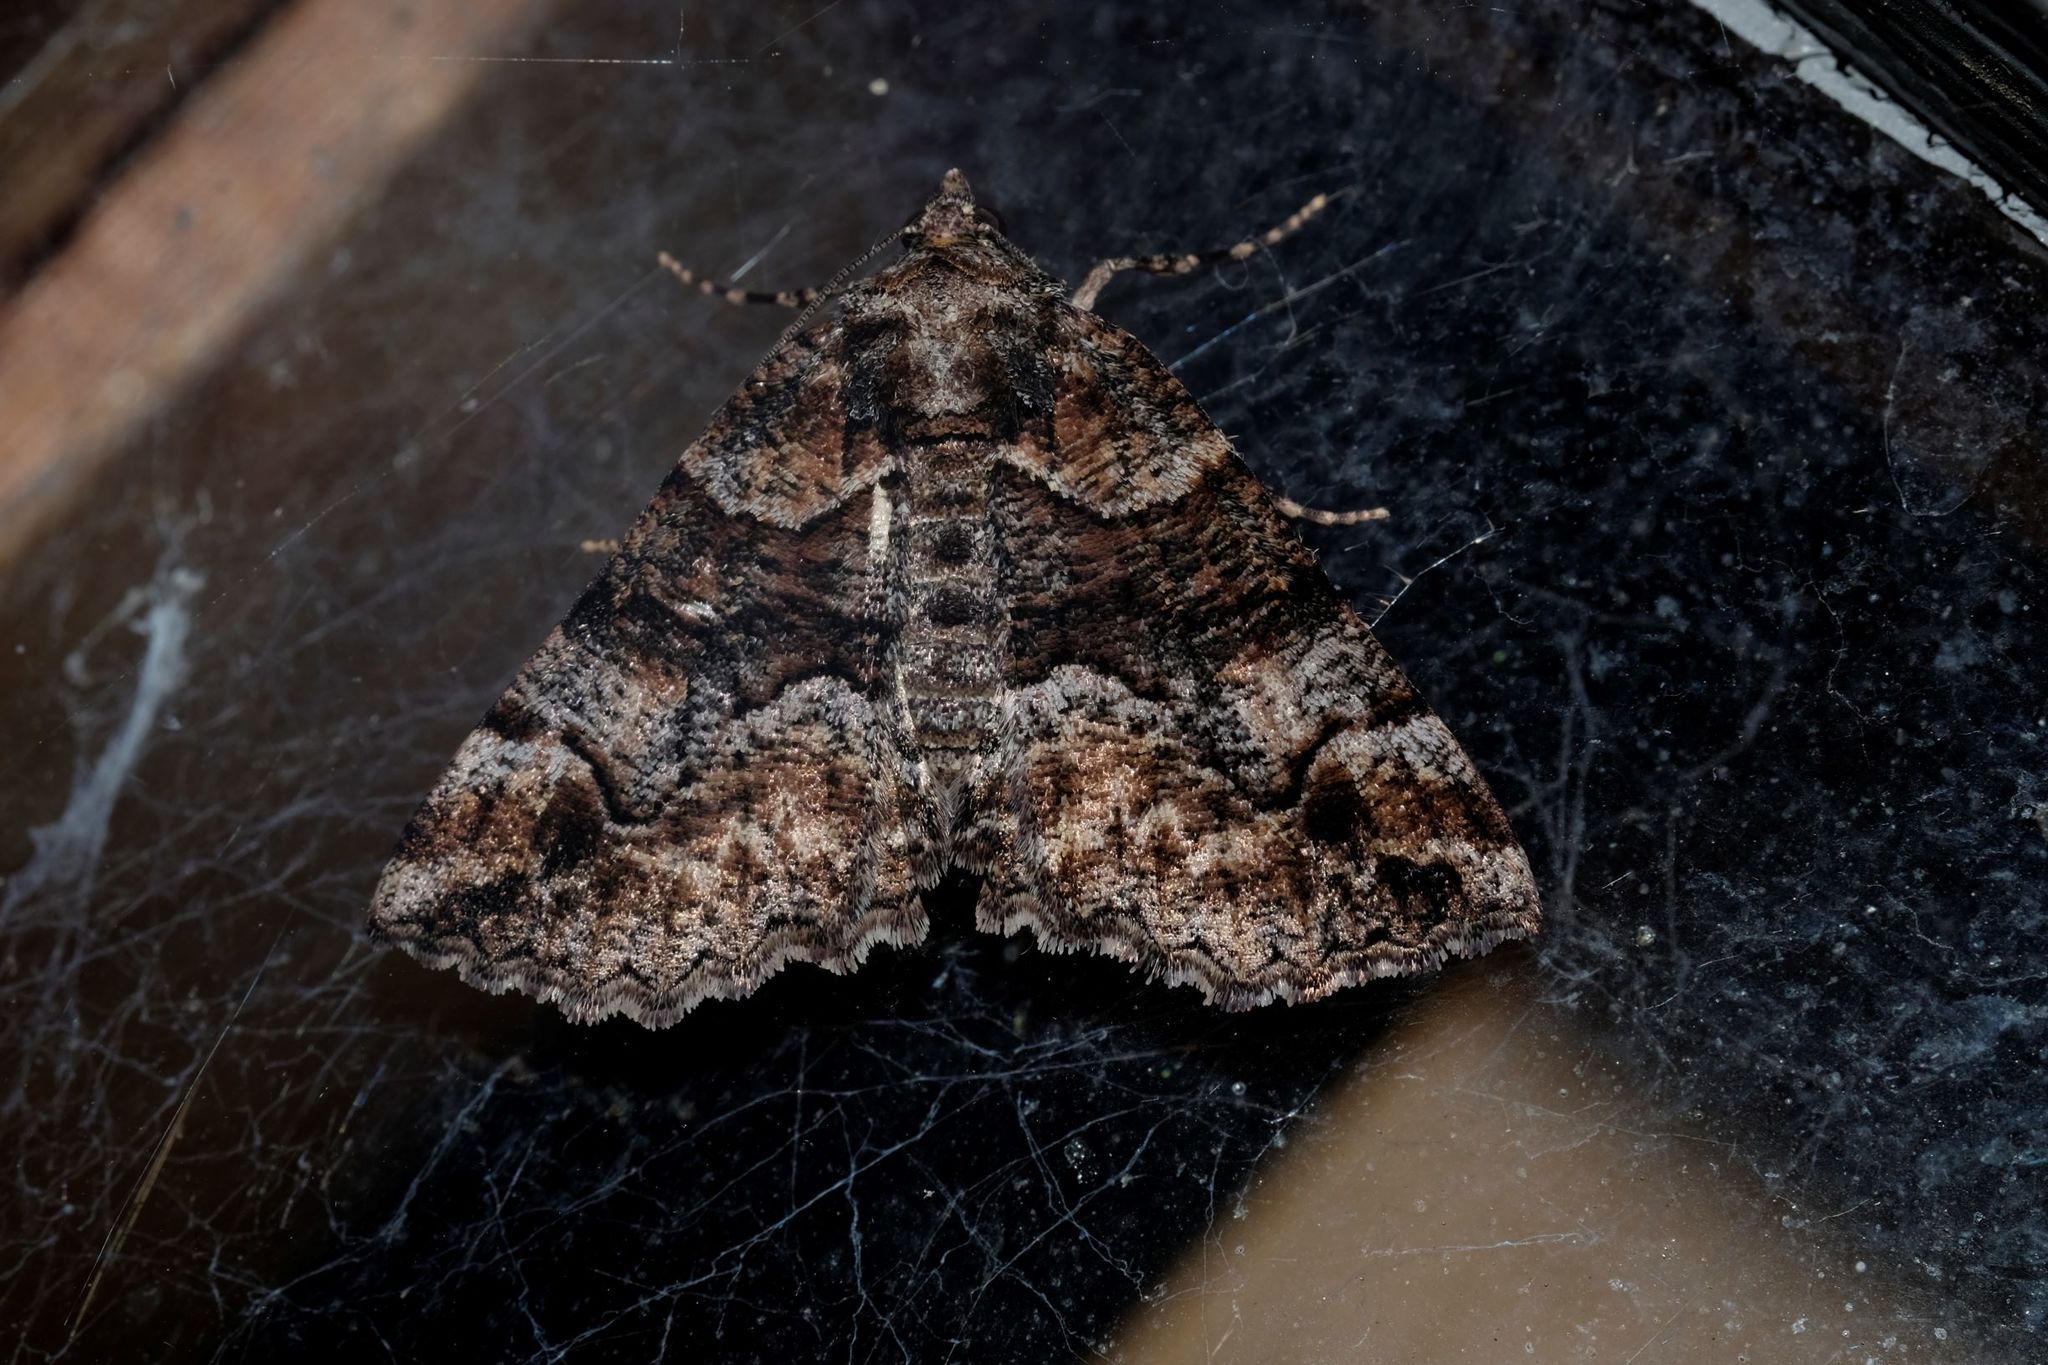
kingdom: Animalia
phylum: Arthropoda
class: Insecta
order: Lepidoptera
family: Geometridae
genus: Gastrina
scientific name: Gastrina cristaria
